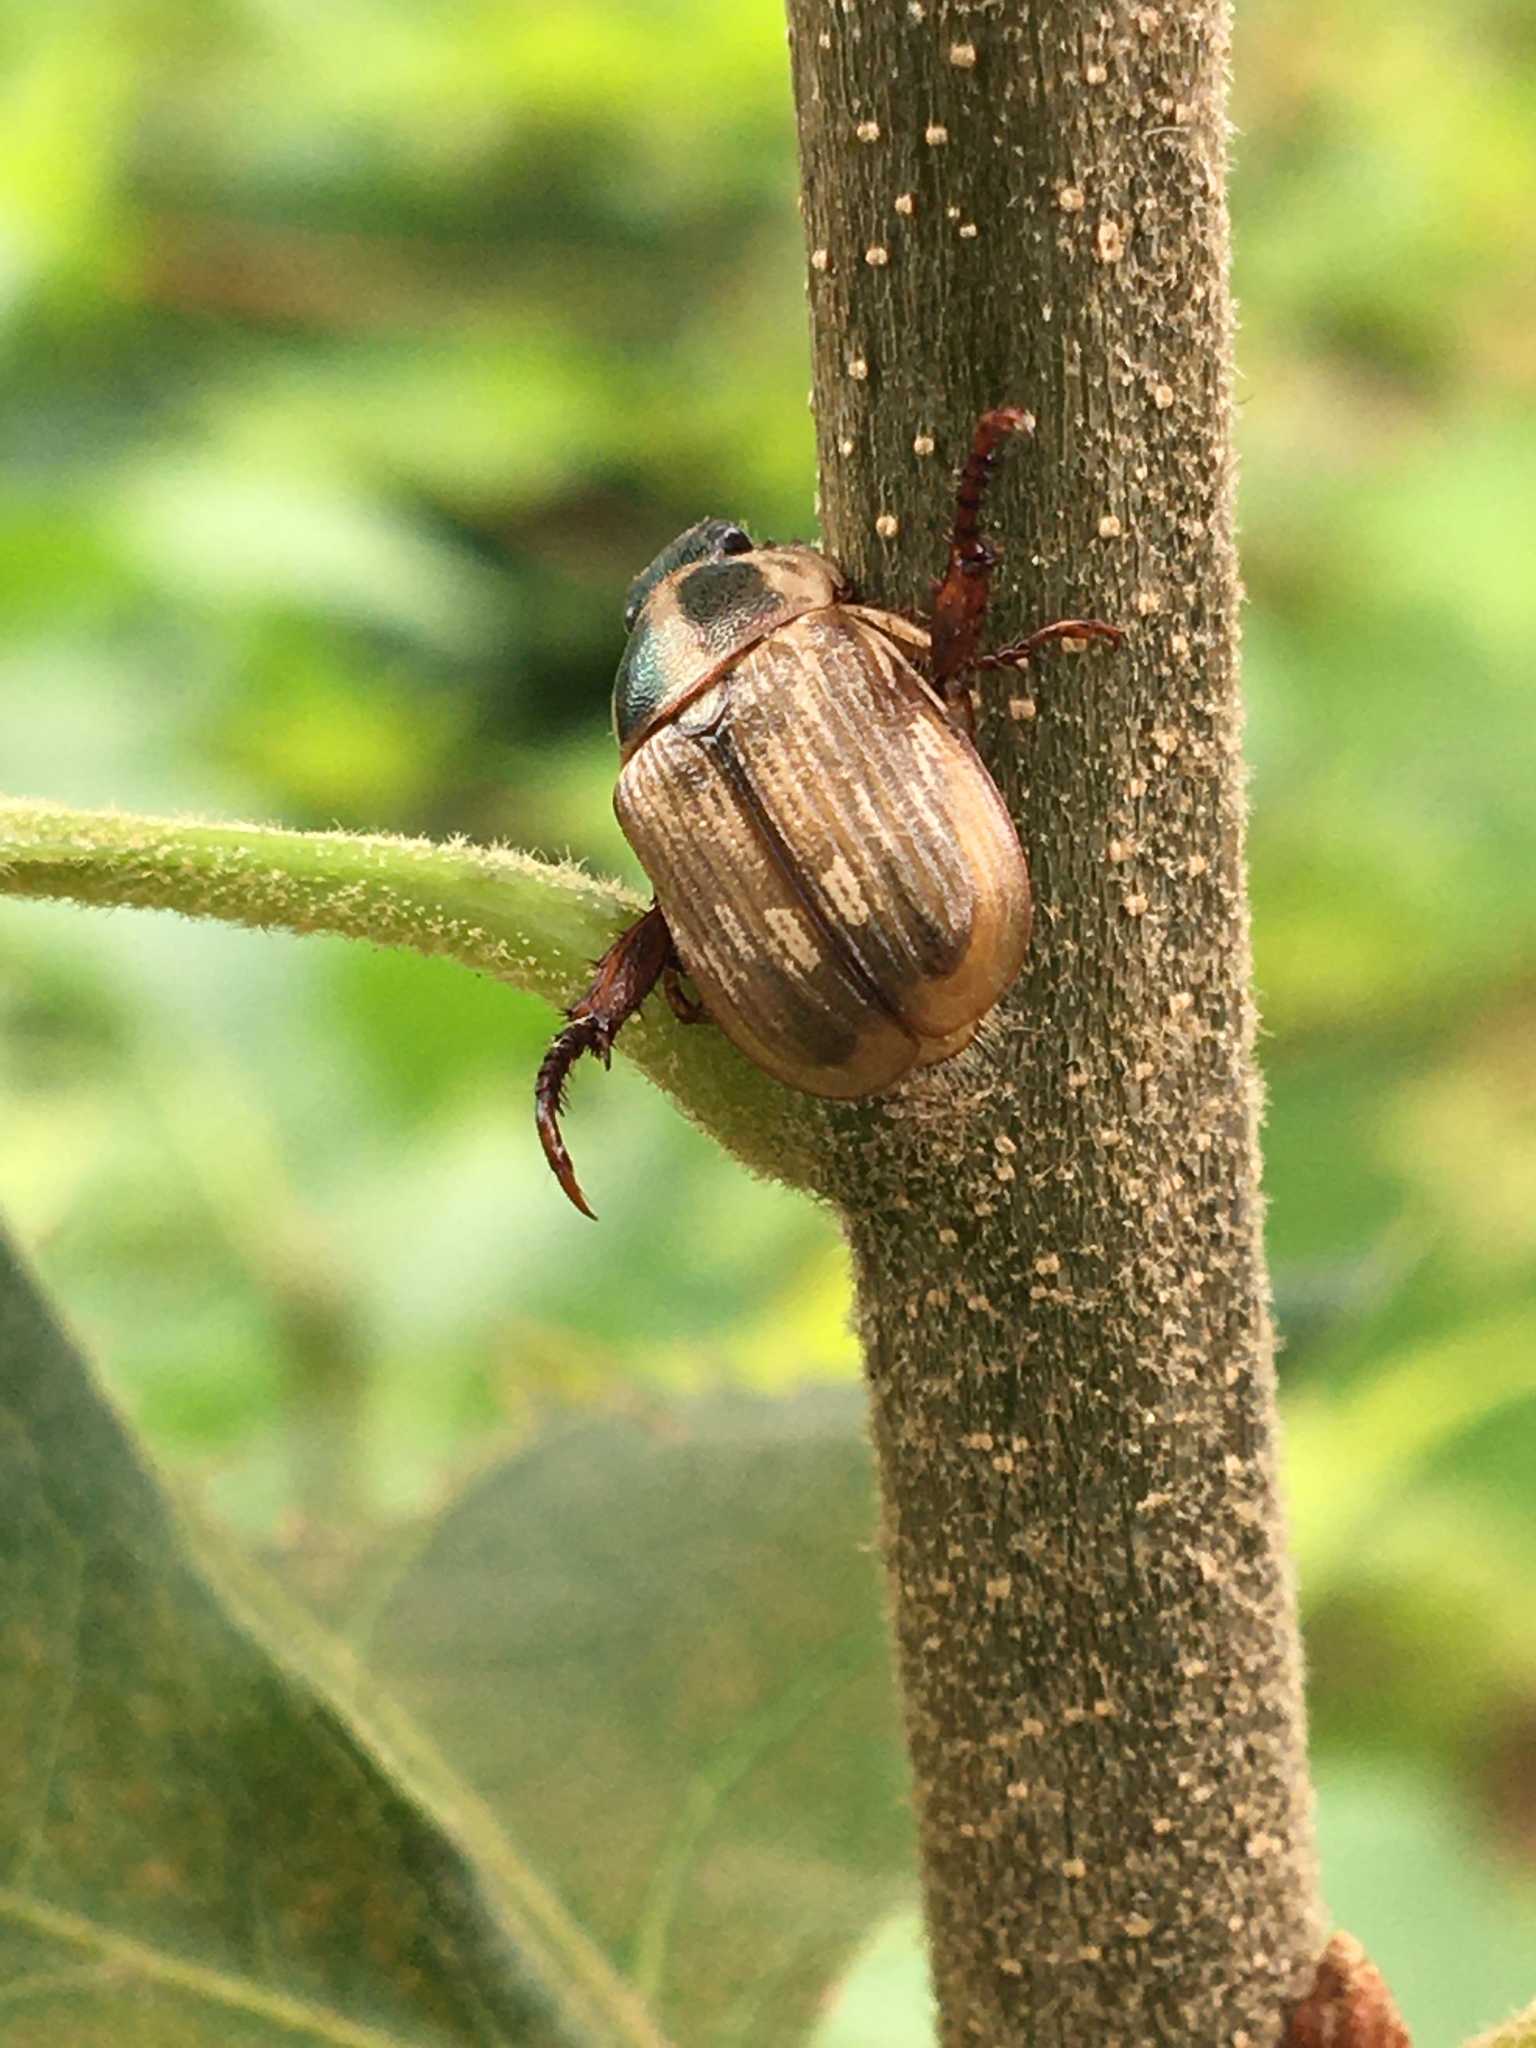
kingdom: Animalia
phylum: Arthropoda
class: Insecta
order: Coleoptera
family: Scarabaeidae
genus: Exomala
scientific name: Exomala orientalis
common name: Oriental beetle
